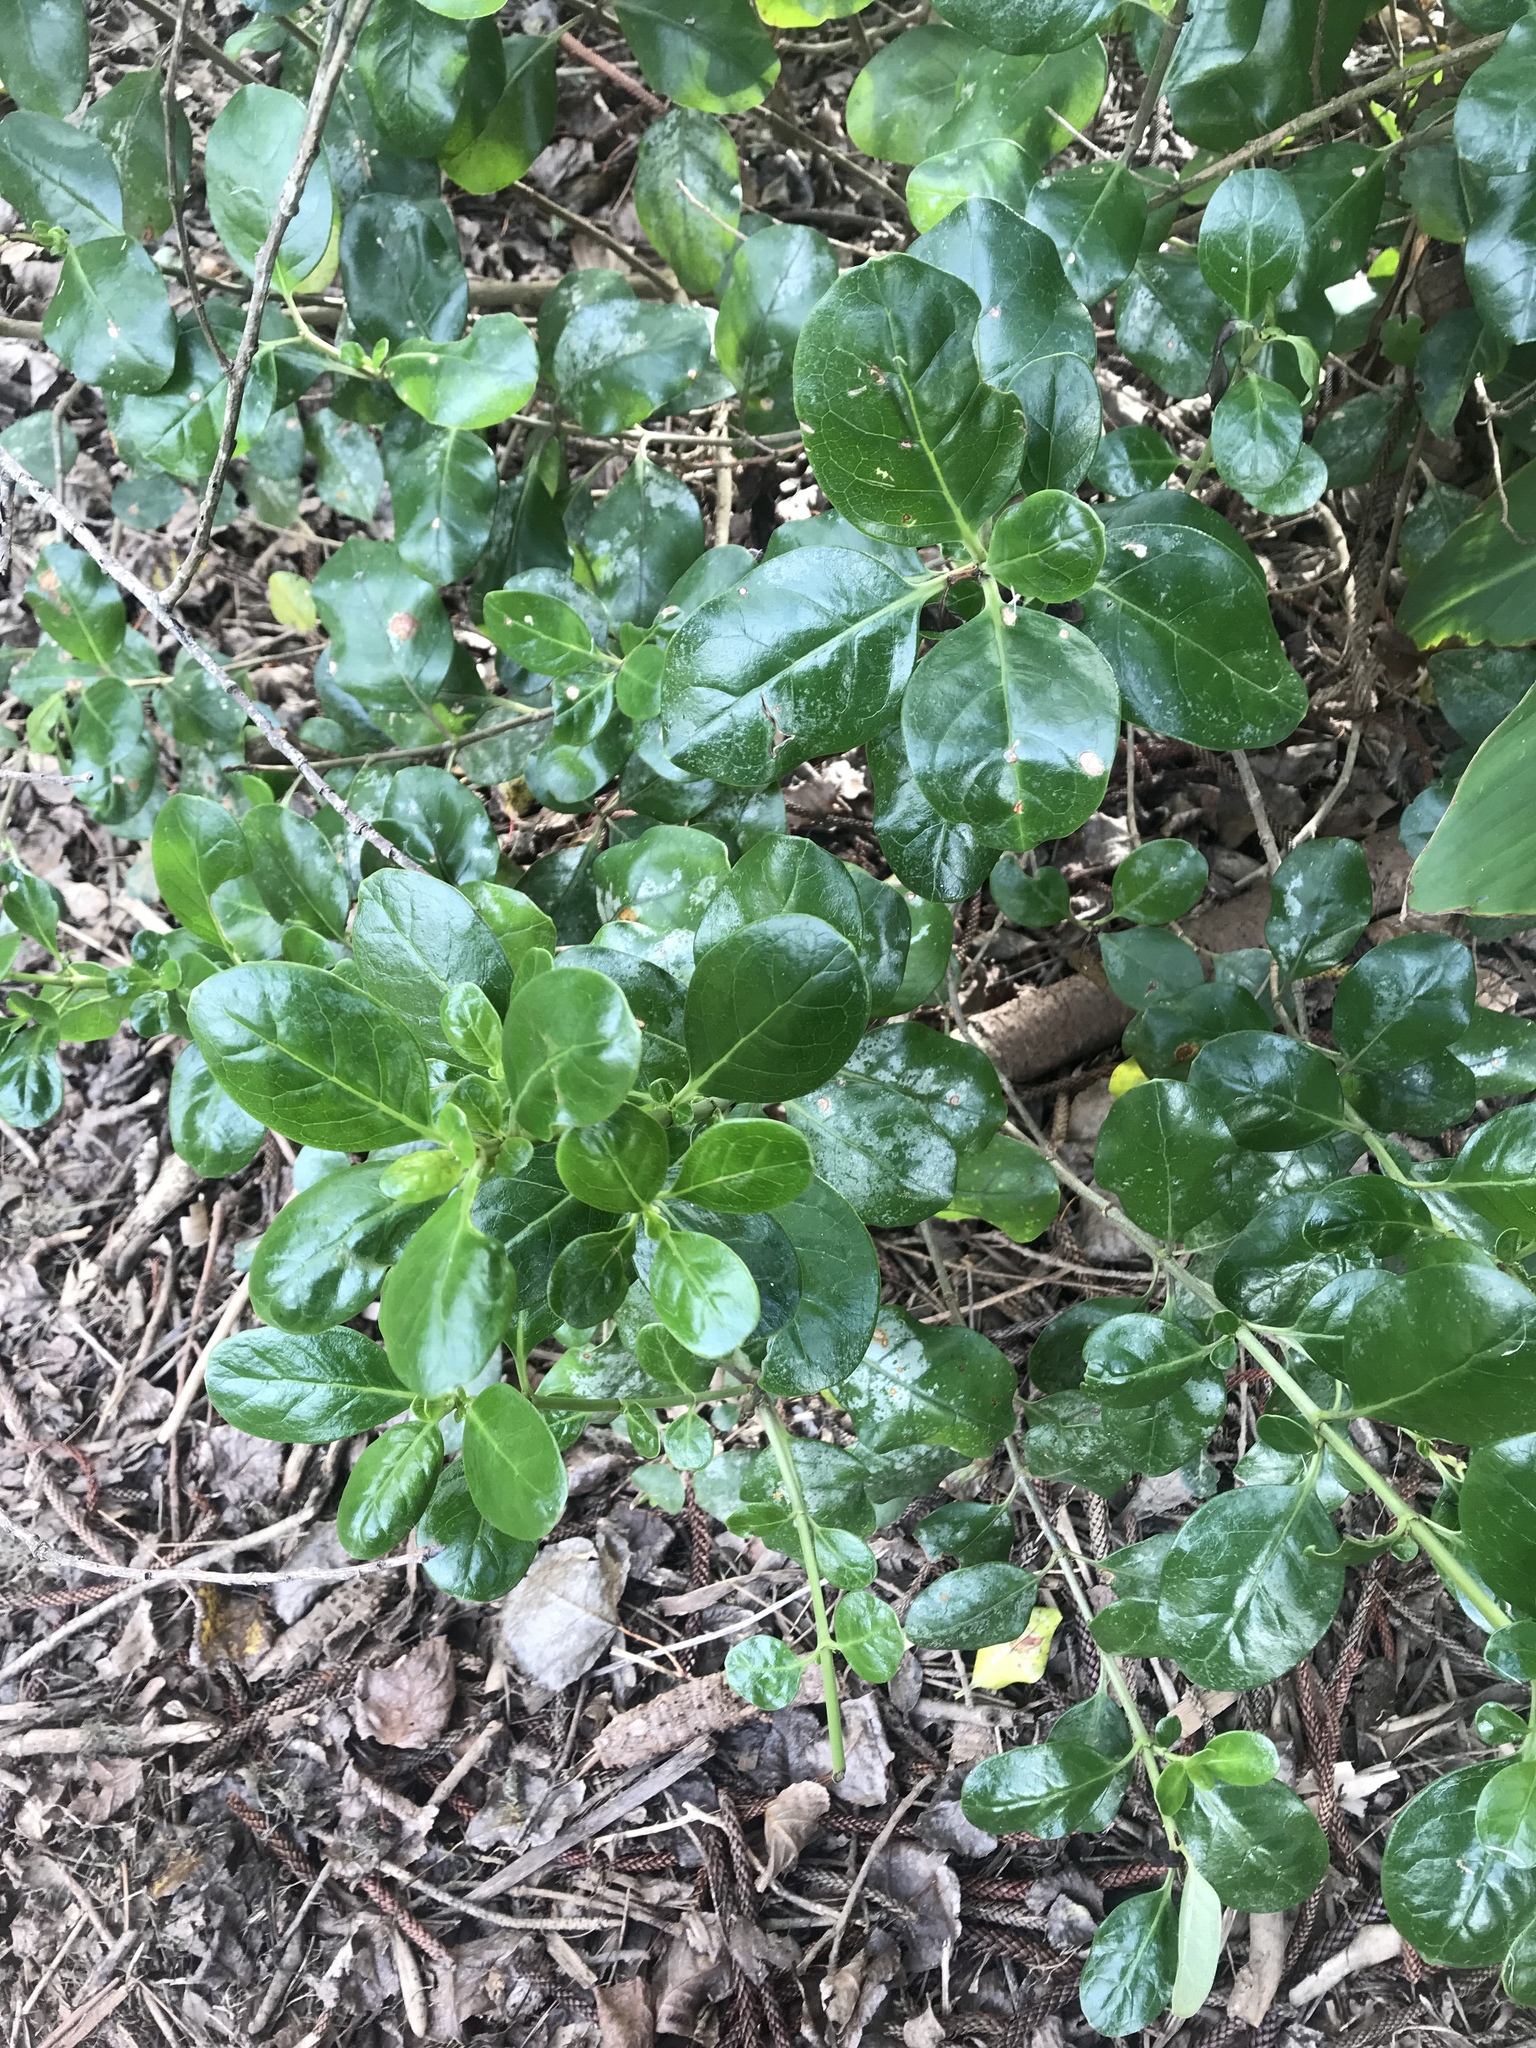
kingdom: Plantae
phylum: Tracheophyta
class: Magnoliopsida
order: Gentianales
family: Rubiaceae
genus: Coprosma
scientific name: Coprosma repens
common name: Tree bedstraw
